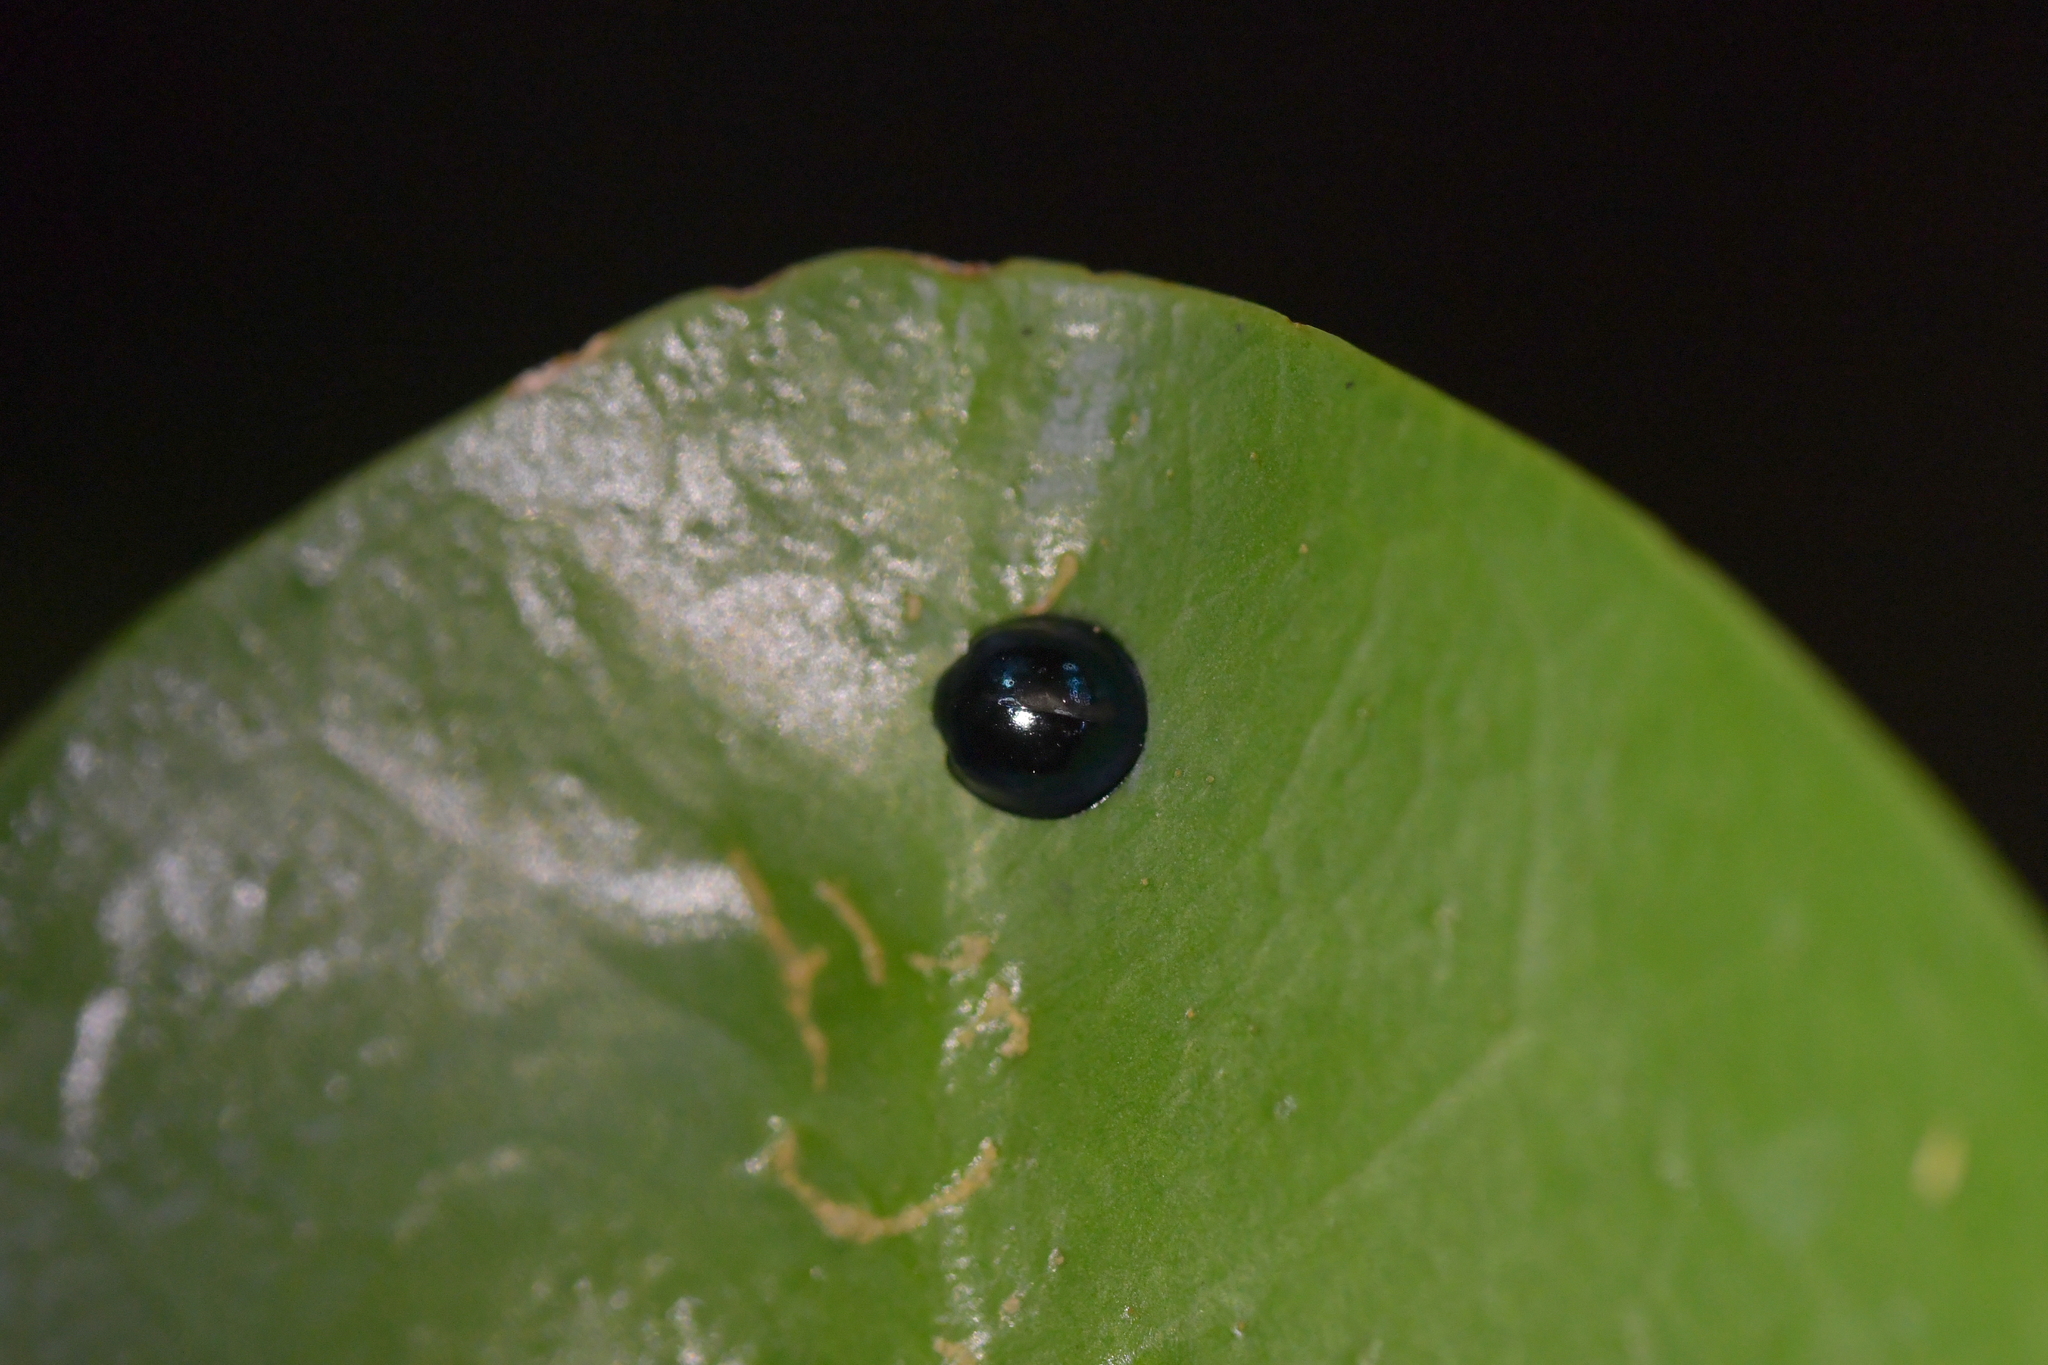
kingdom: Animalia
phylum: Arthropoda
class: Insecta
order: Coleoptera
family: Coccinellidae
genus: Halmus
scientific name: Halmus chalybeus
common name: Steel blue ladybird beetle
